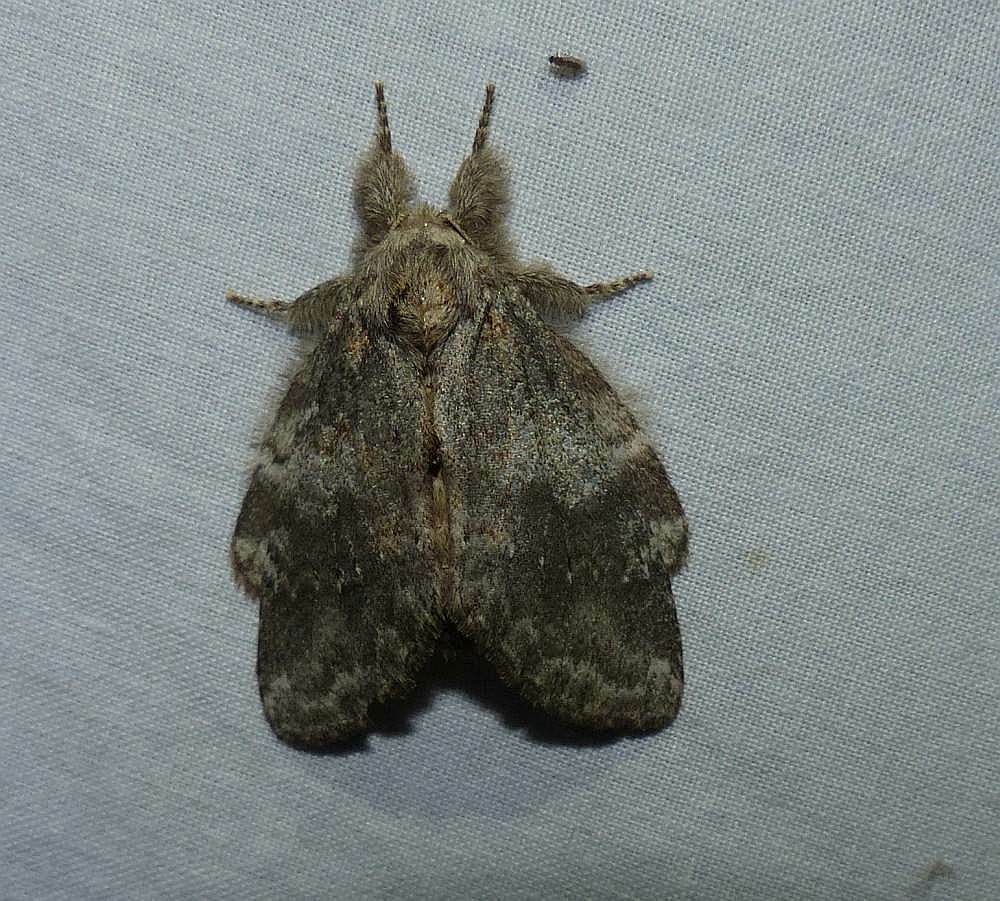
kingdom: Animalia
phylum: Arthropoda
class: Insecta
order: Lepidoptera
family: Notodontidae
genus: Peridea
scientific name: Peridea angulosa
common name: Angulose prominent
